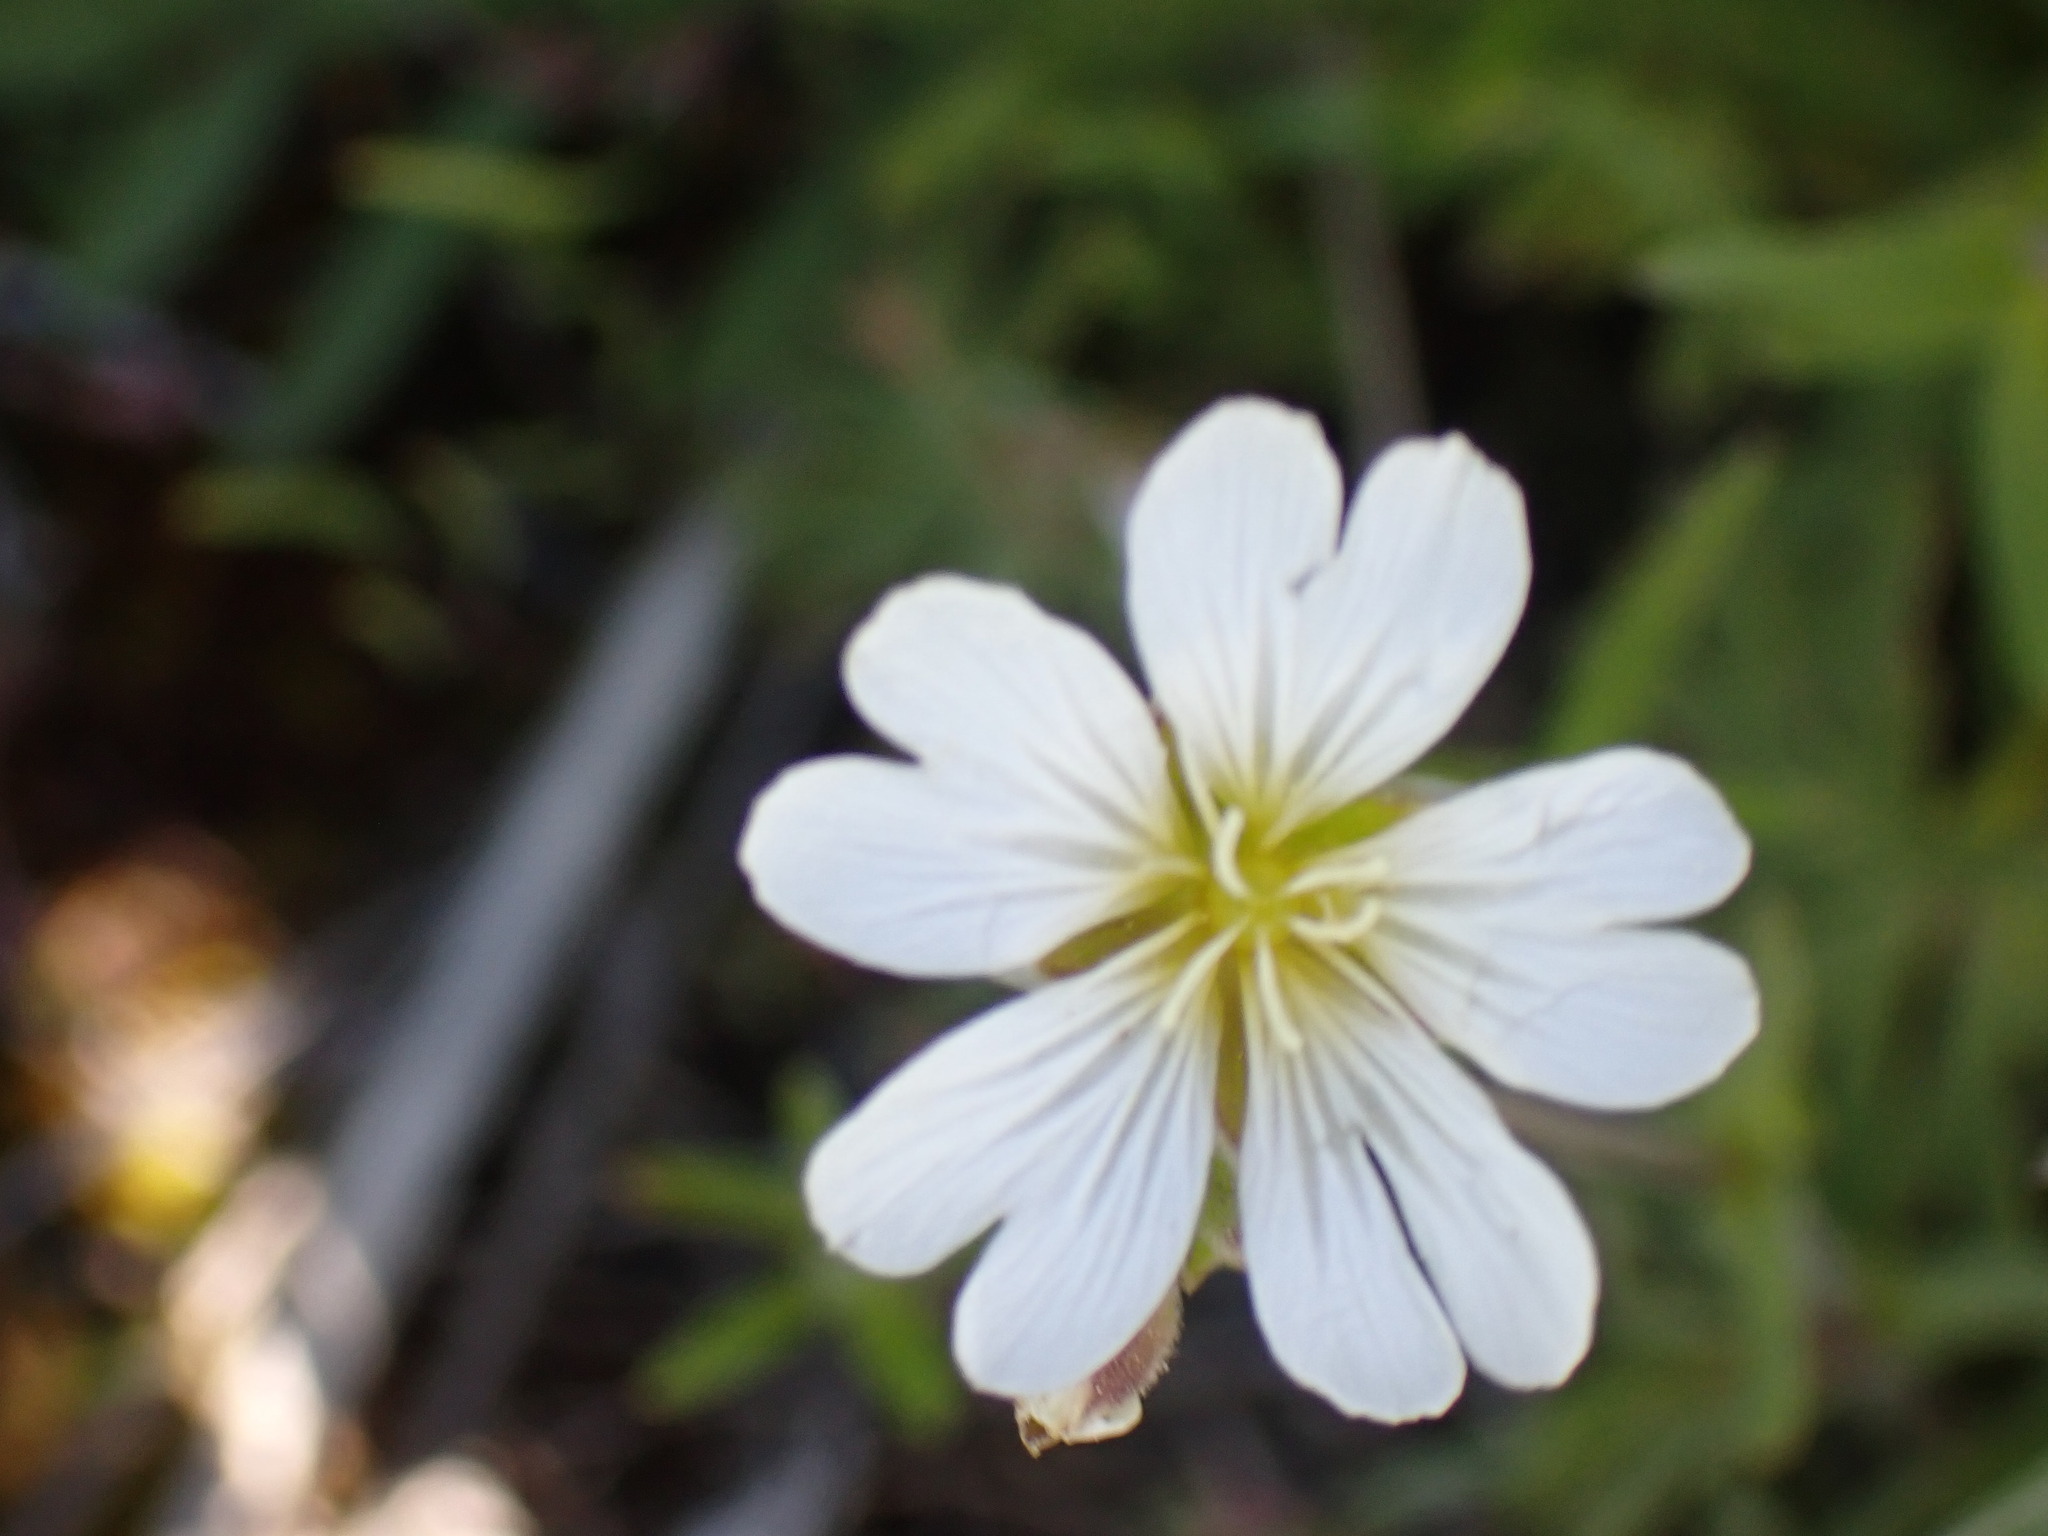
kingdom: Plantae
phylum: Tracheophyta
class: Magnoliopsida
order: Caryophyllales
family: Caryophyllaceae
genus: Cerastium
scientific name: Cerastium arvense
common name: Field mouse-ear
